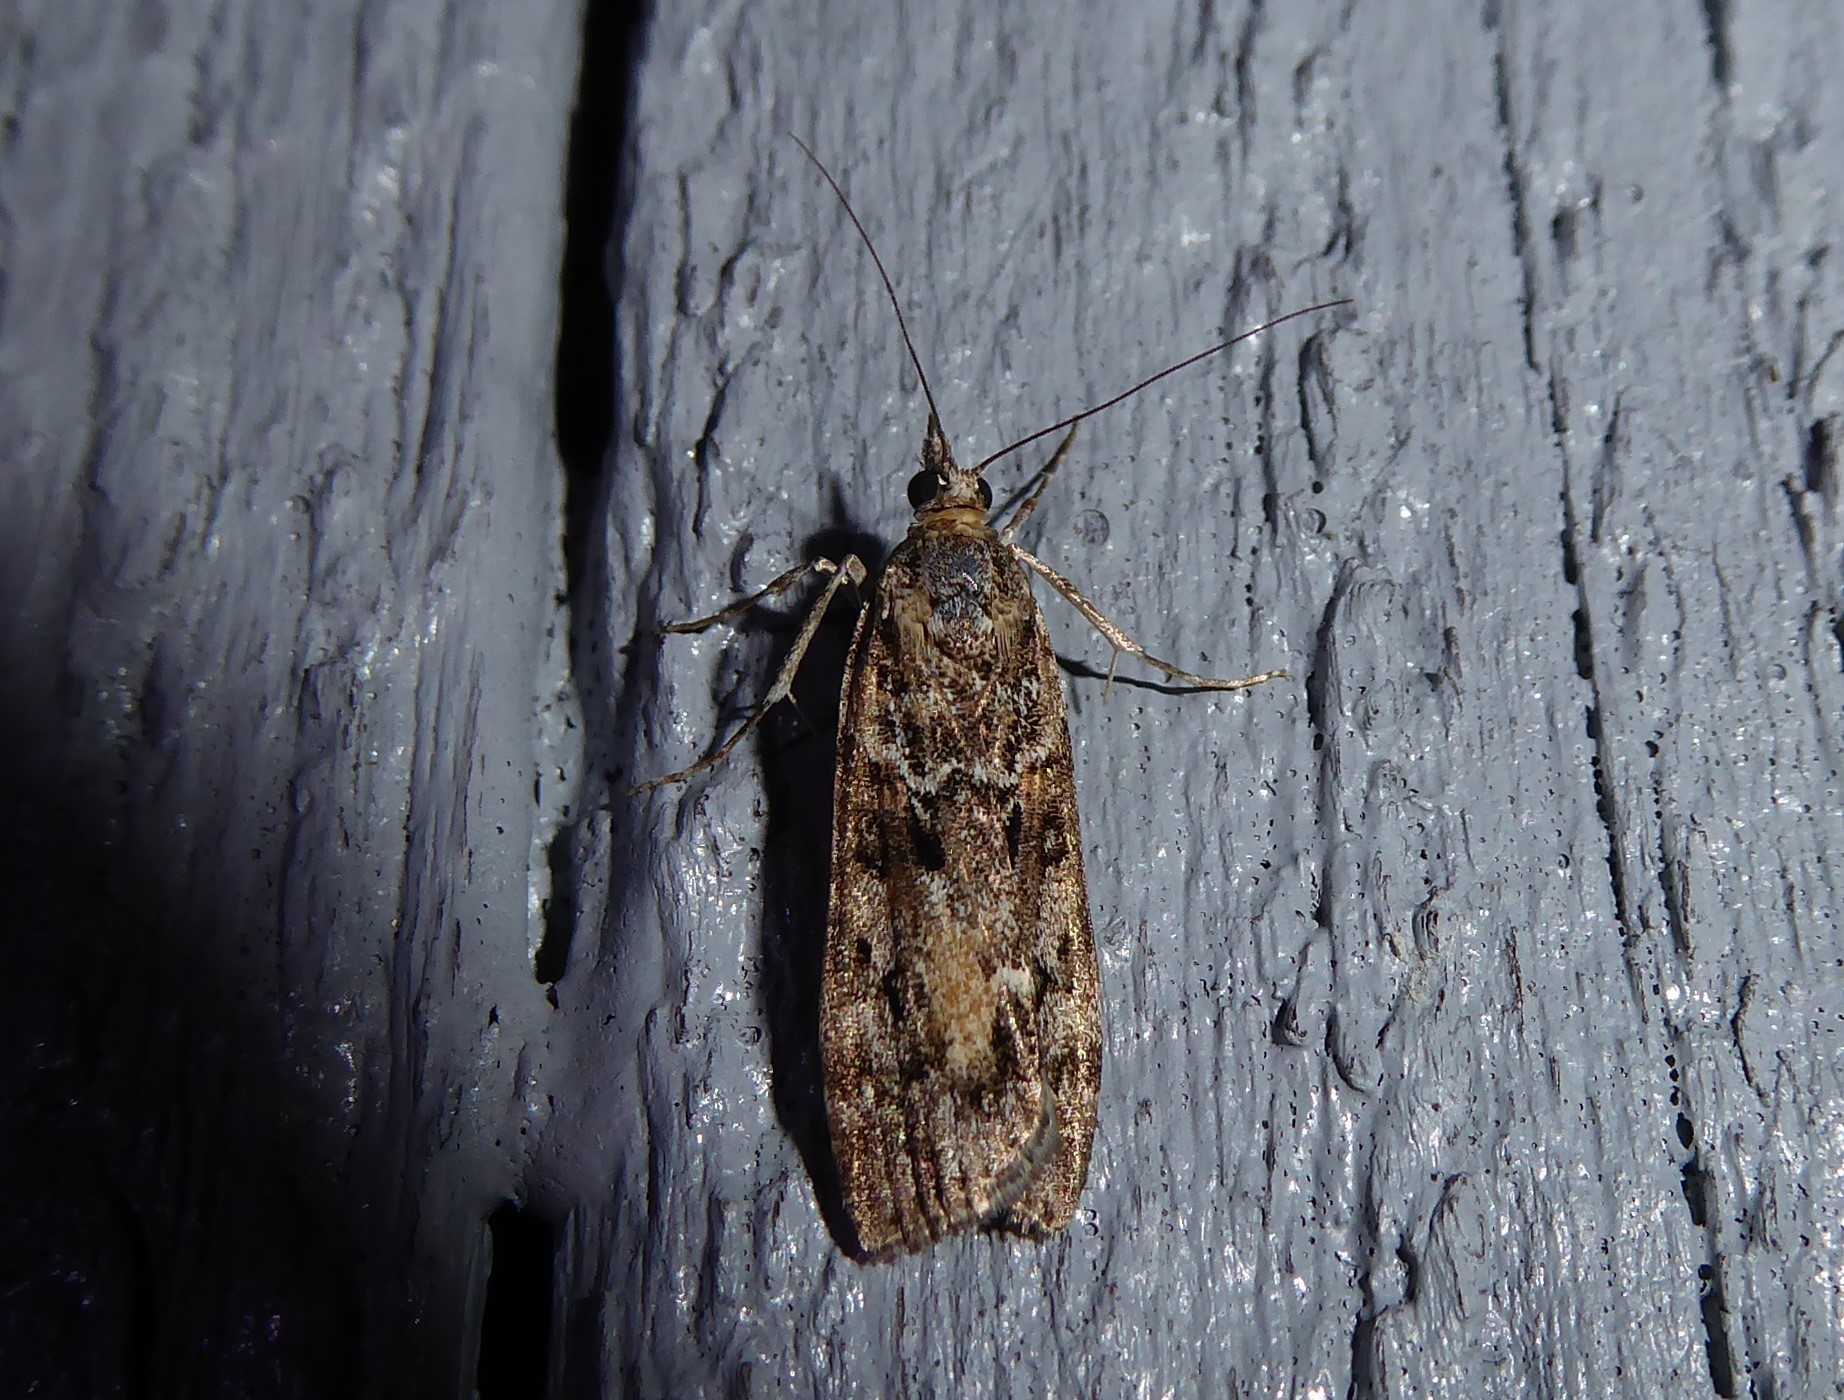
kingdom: Animalia
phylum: Arthropoda
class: Insecta
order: Lepidoptera
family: Crambidae
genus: Eudonia
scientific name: Eudonia submarginalis
